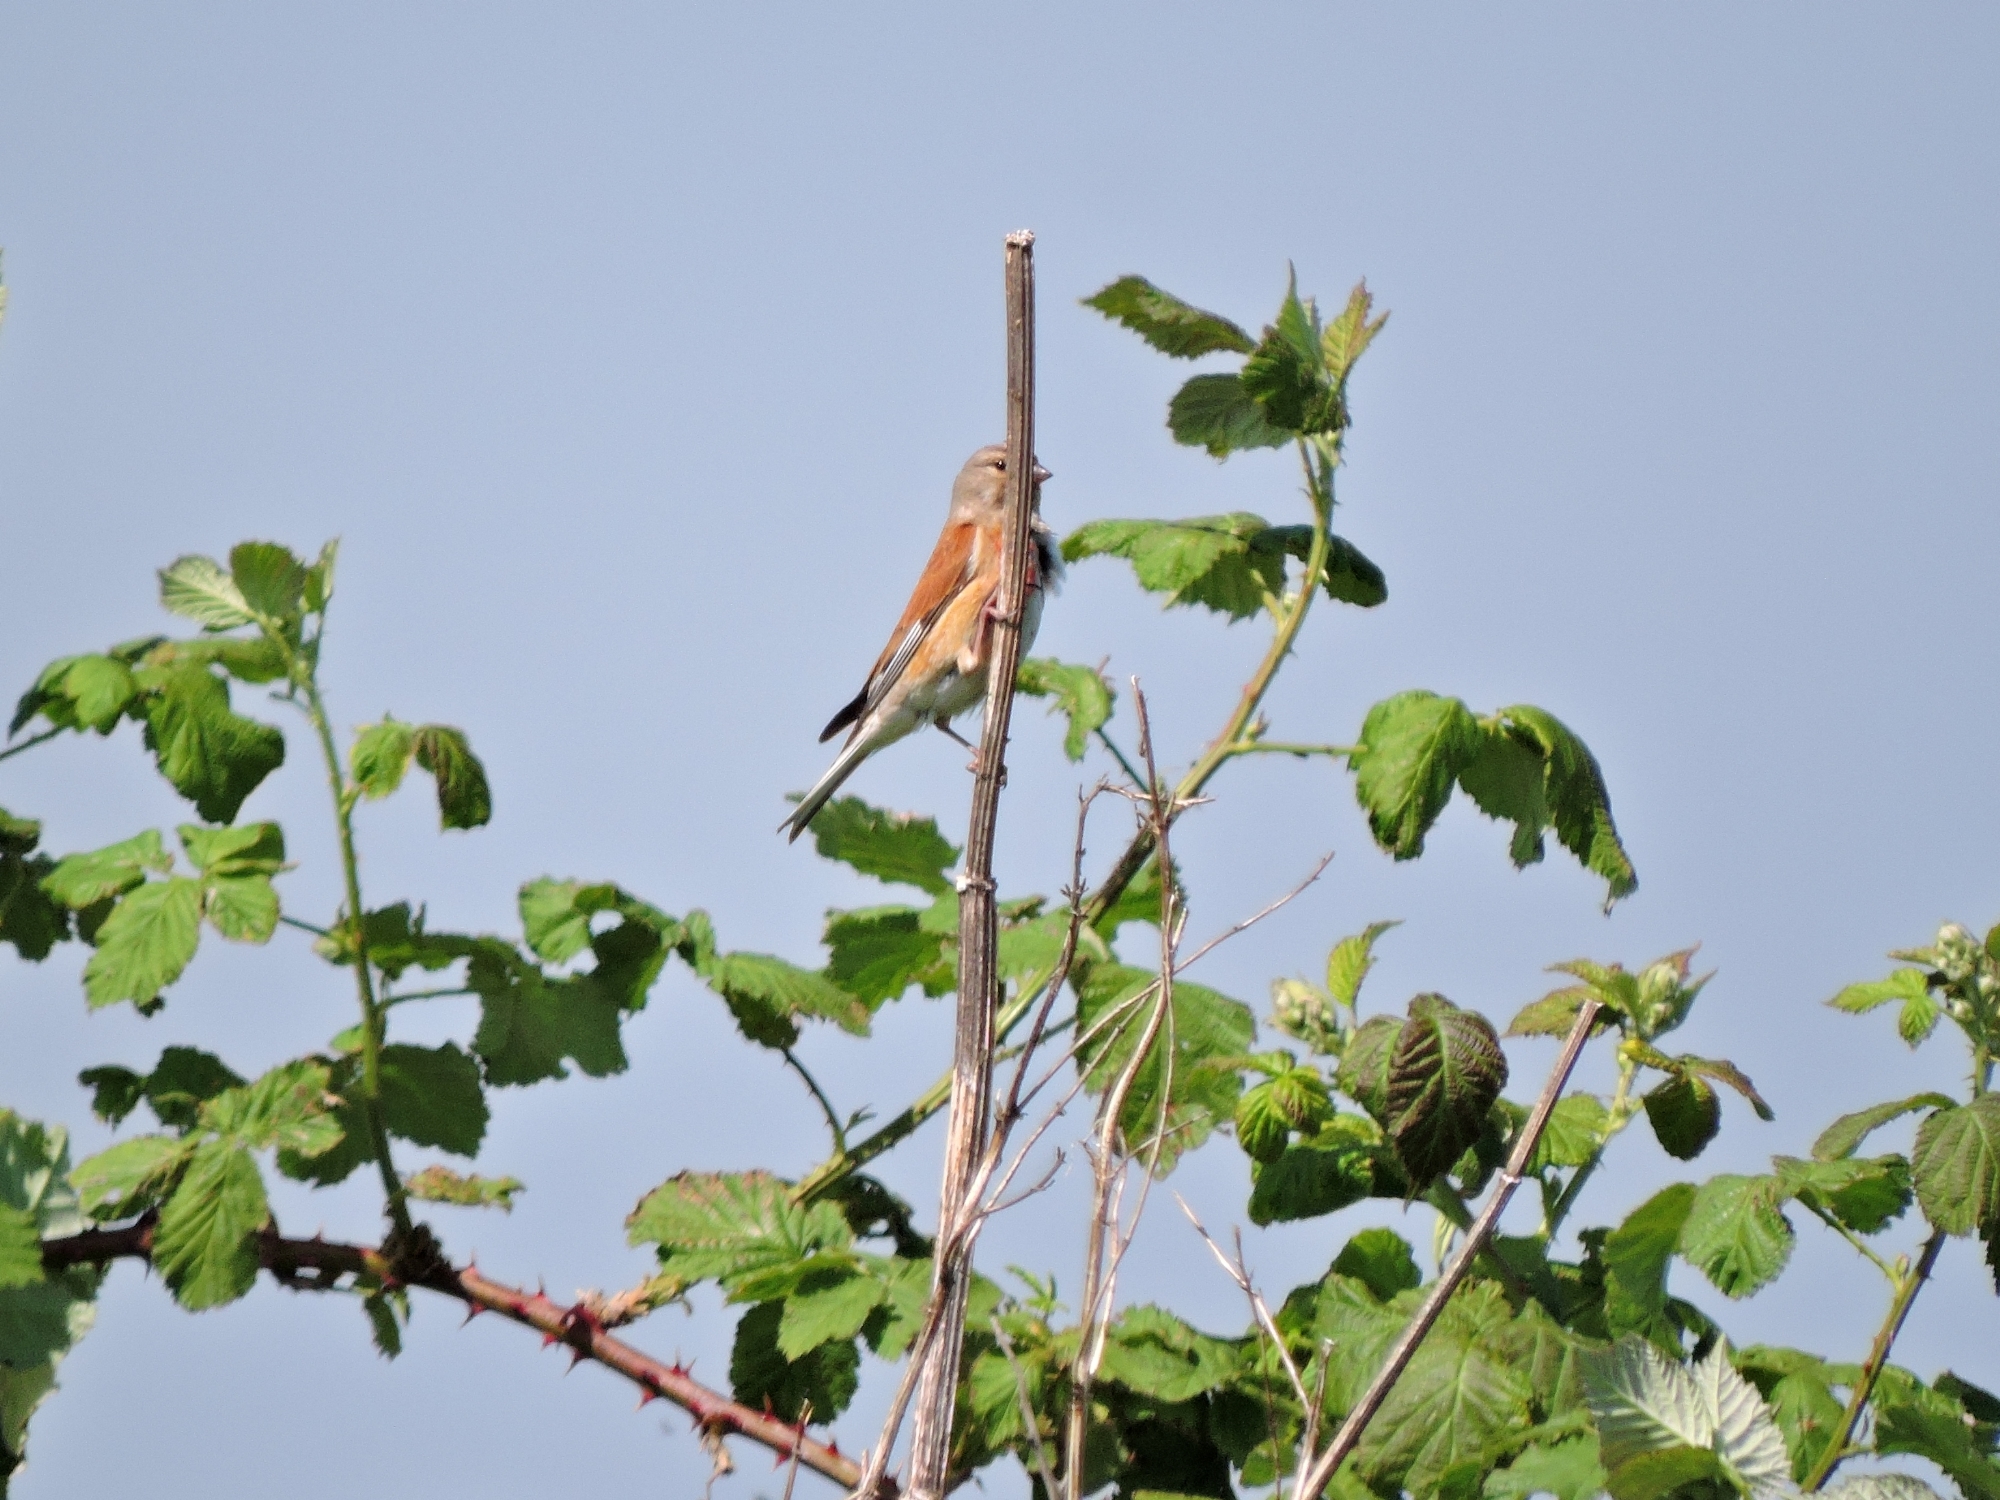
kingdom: Animalia
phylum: Chordata
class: Aves
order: Passeriformes
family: Fringillidae
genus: Linaria
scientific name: Linaria cannabina
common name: Common linnet
